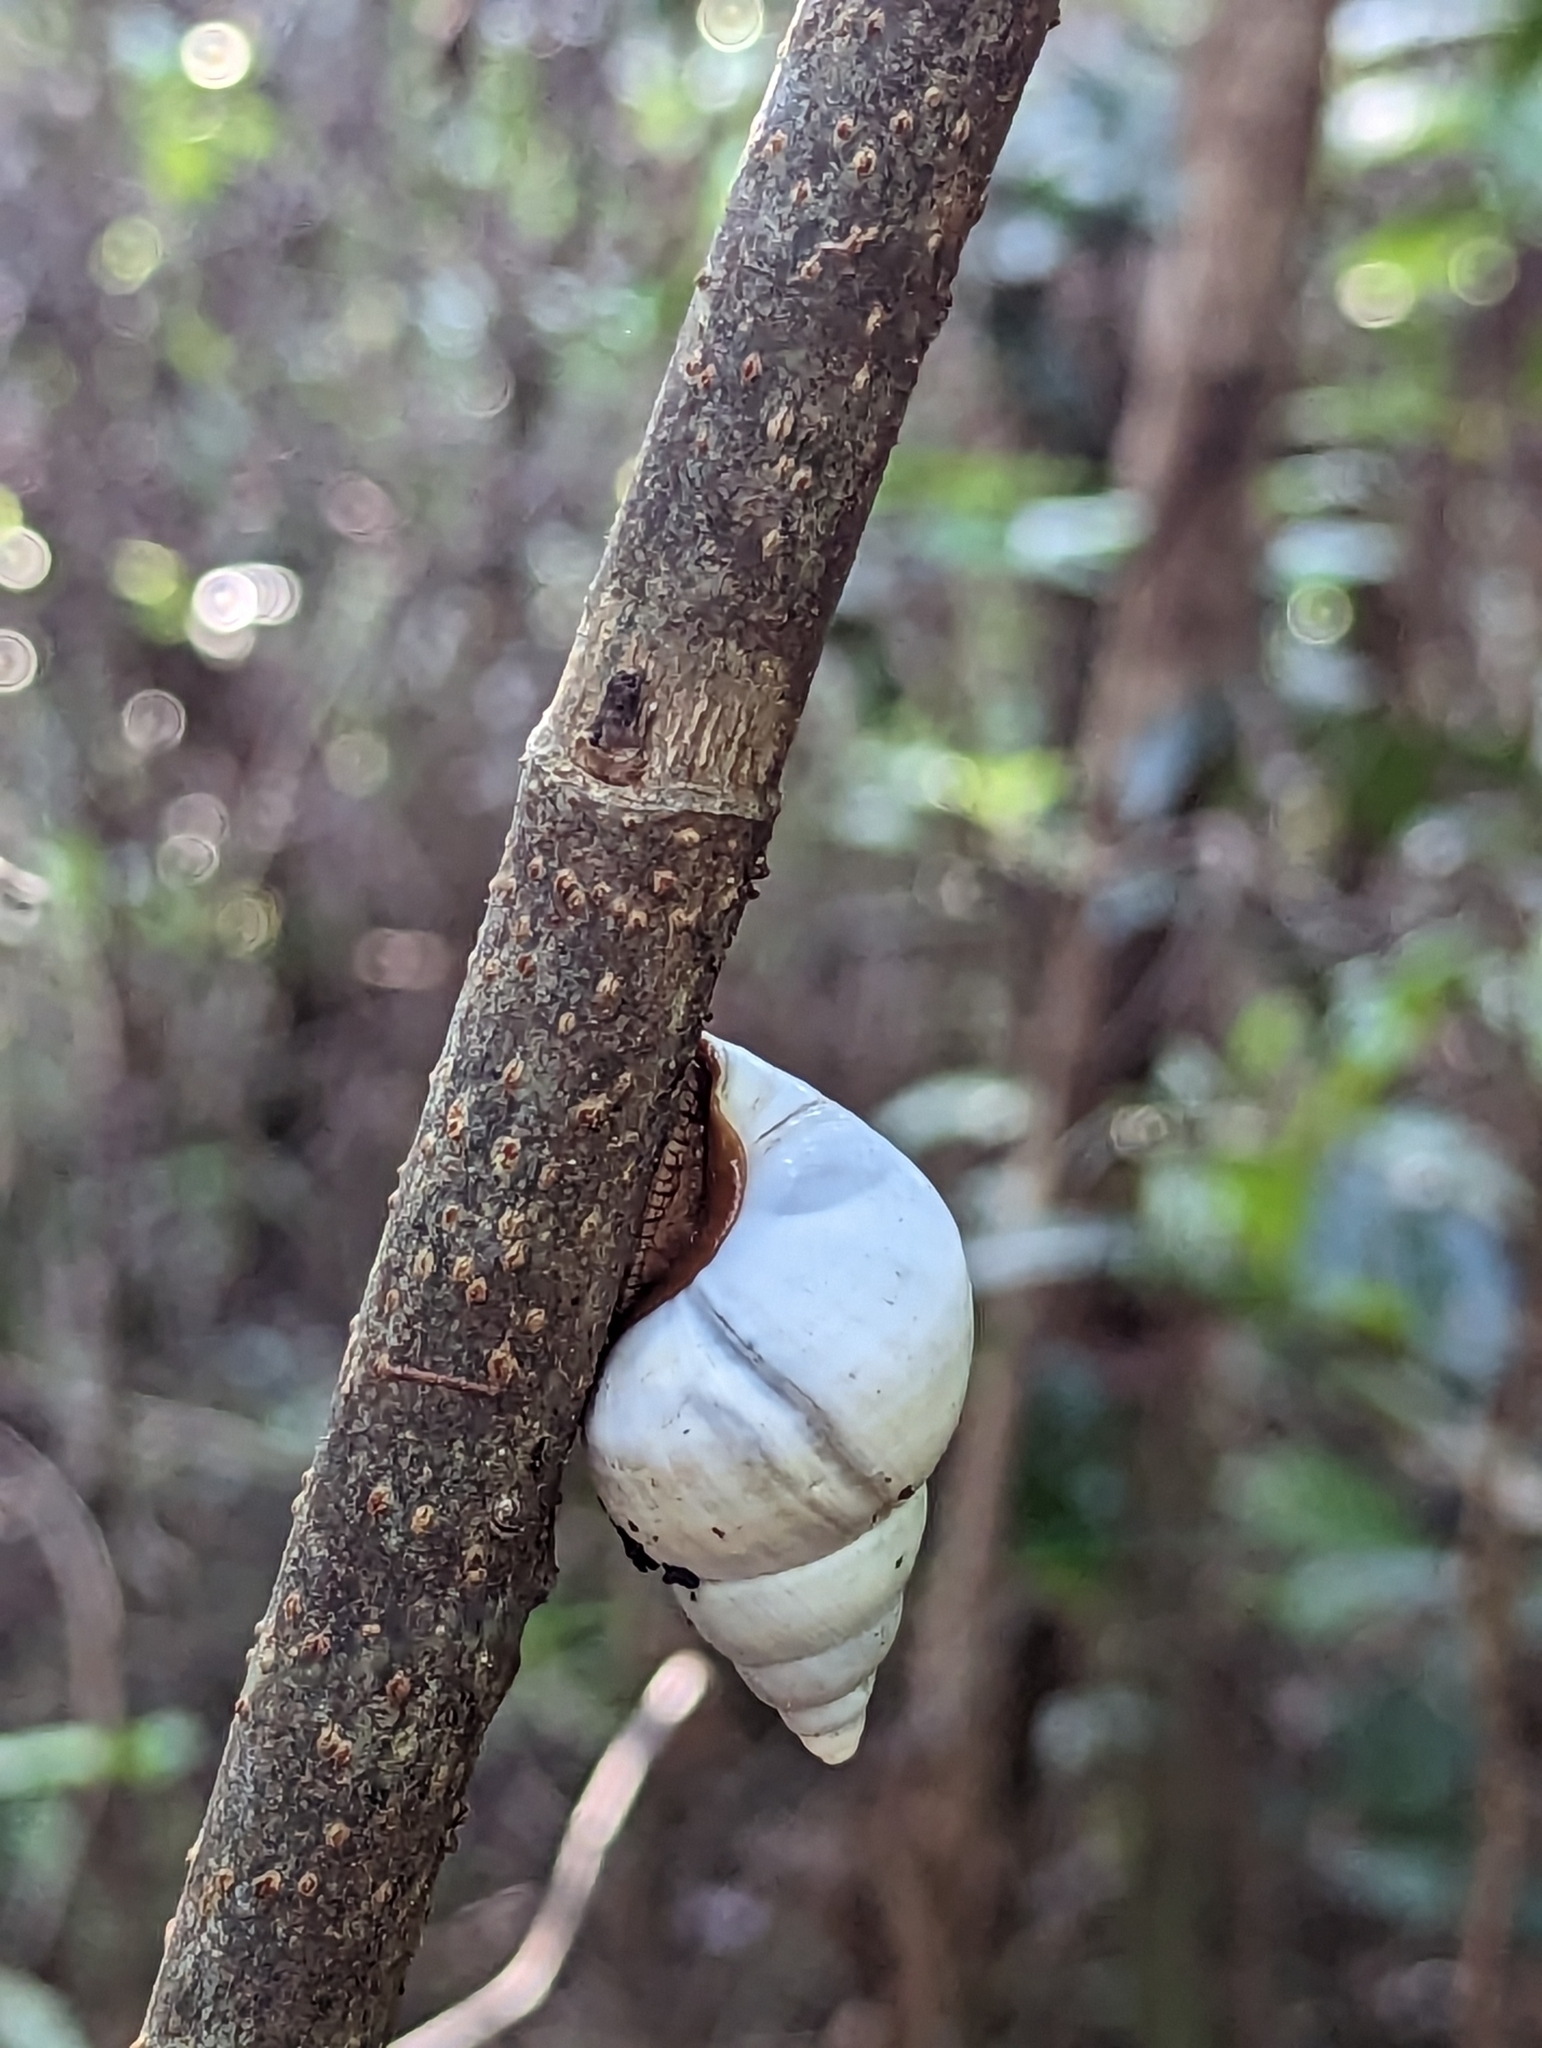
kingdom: Animalia
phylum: Mollusca
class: Gastropoda
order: Stylommatophora
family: Orthalicidae
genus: Liguus
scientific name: Liguus fasciatus
